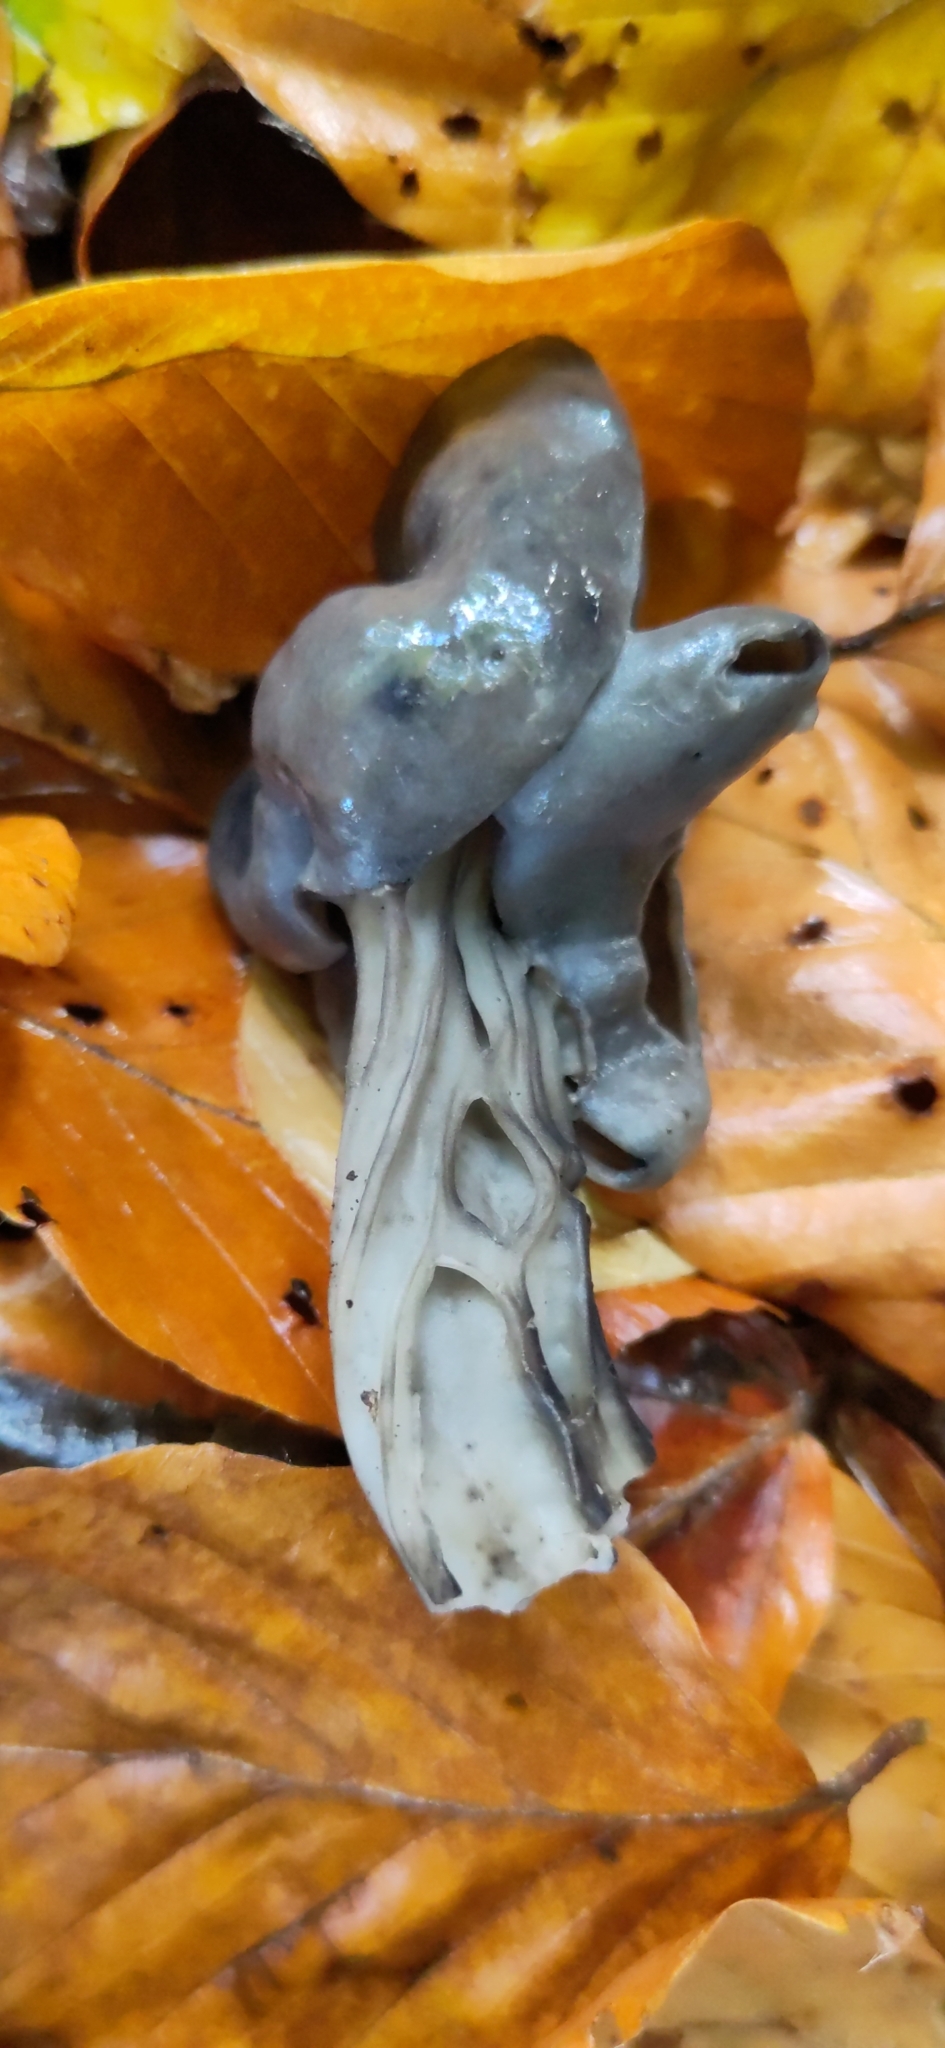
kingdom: Fungi
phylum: Ascomycota
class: Pezizomycetes
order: Pezizales
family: Helvellaceae
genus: Helvella
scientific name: Helvella lacunosa
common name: Elfin saddle
